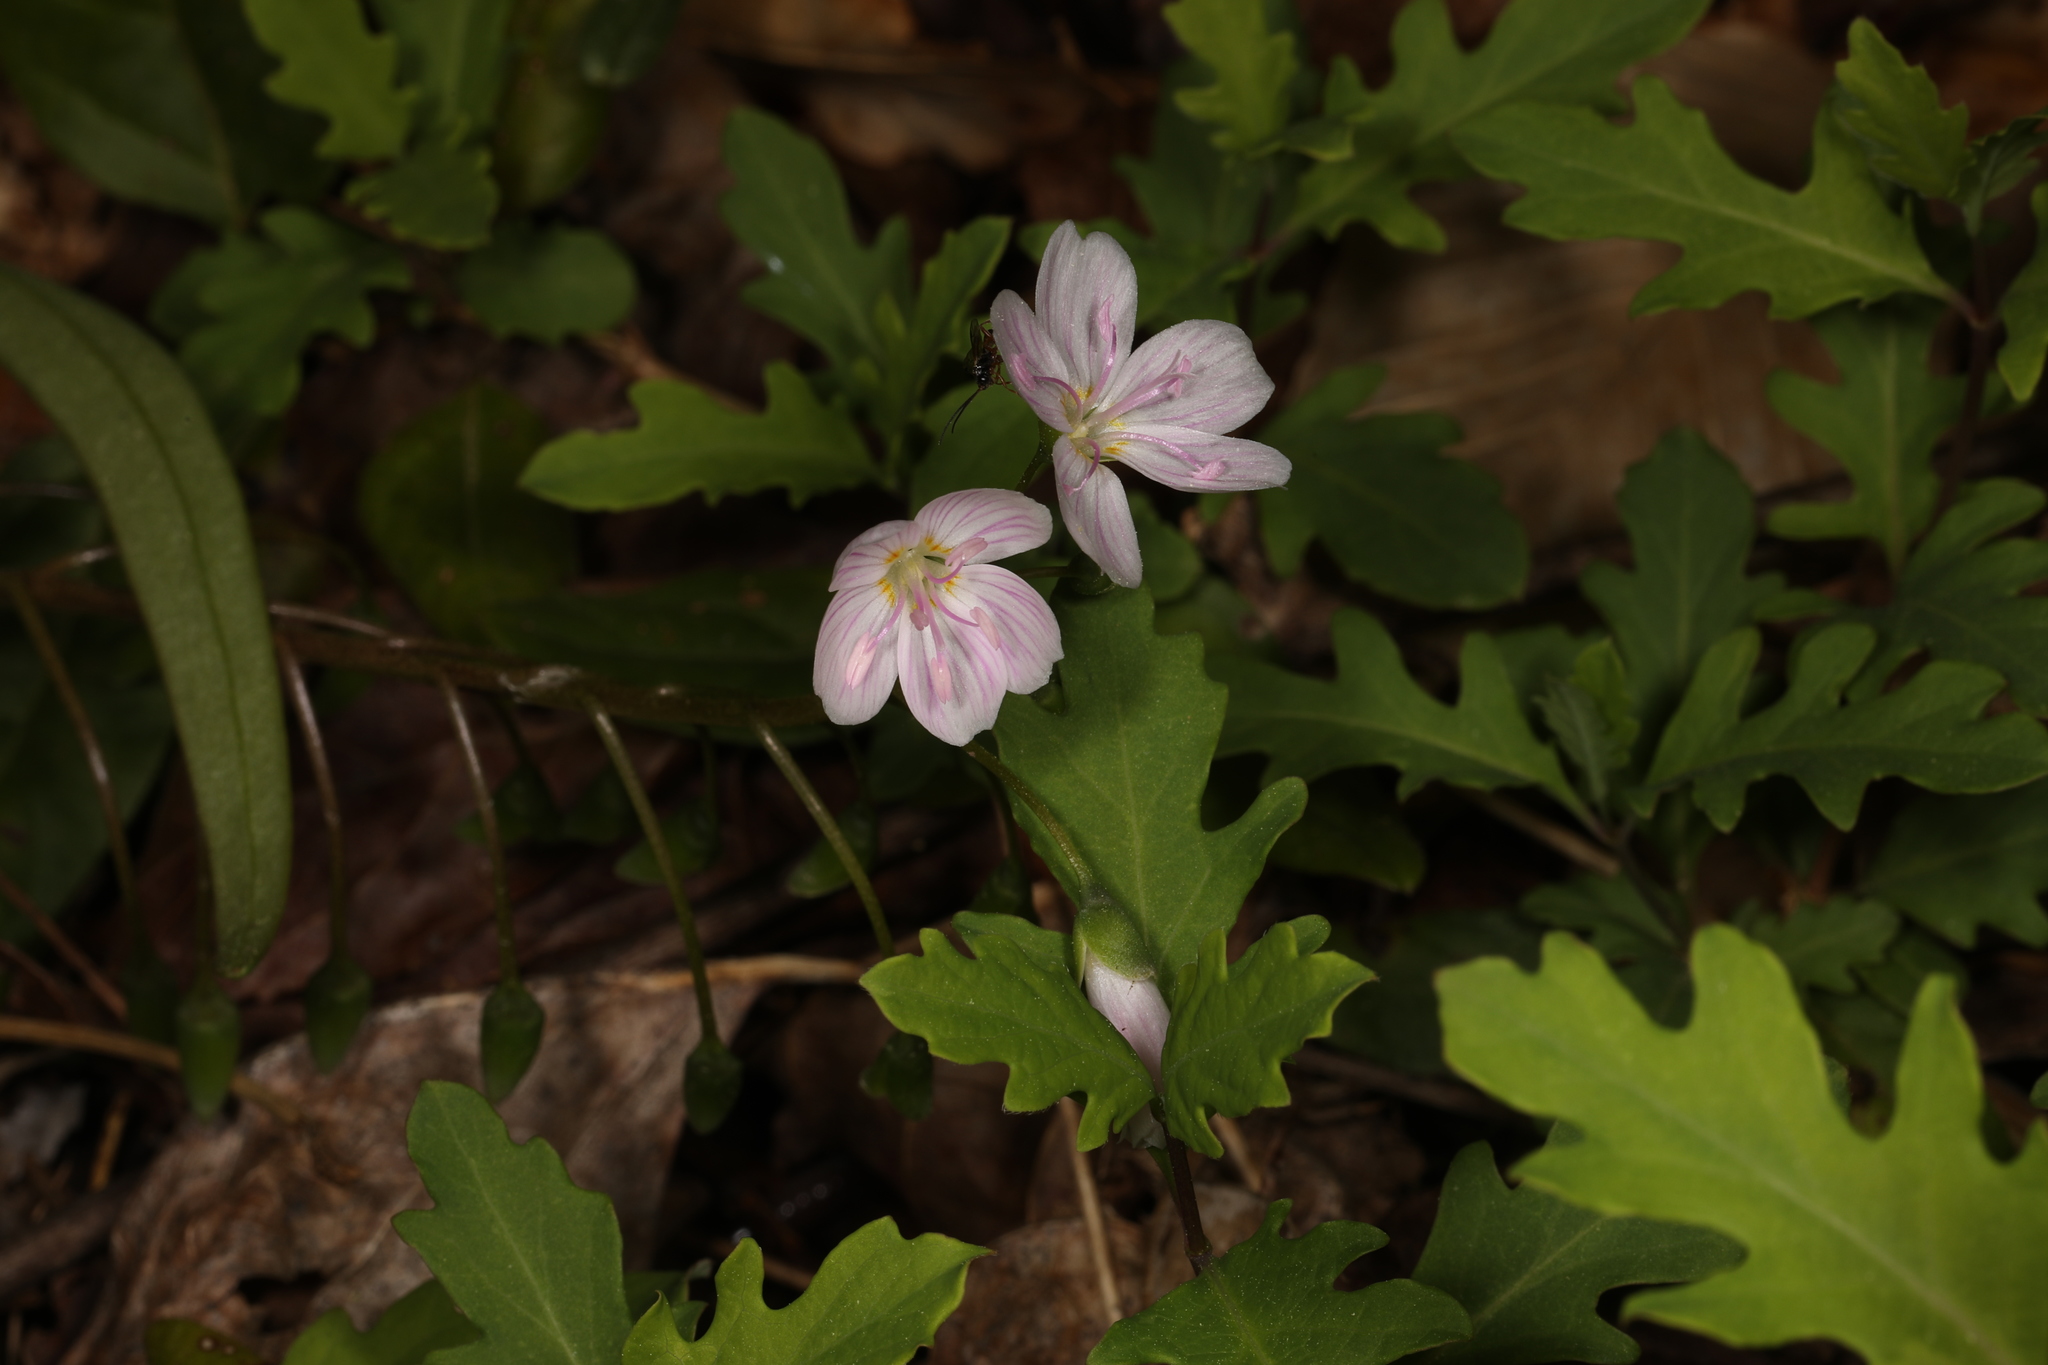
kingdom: Plantae
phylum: Tracheophyta
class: Magnoliopsida
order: Caryophyllales
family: Montiaceae
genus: Claytonia
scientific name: Claytonia virginica
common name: Virginia springbeauty
